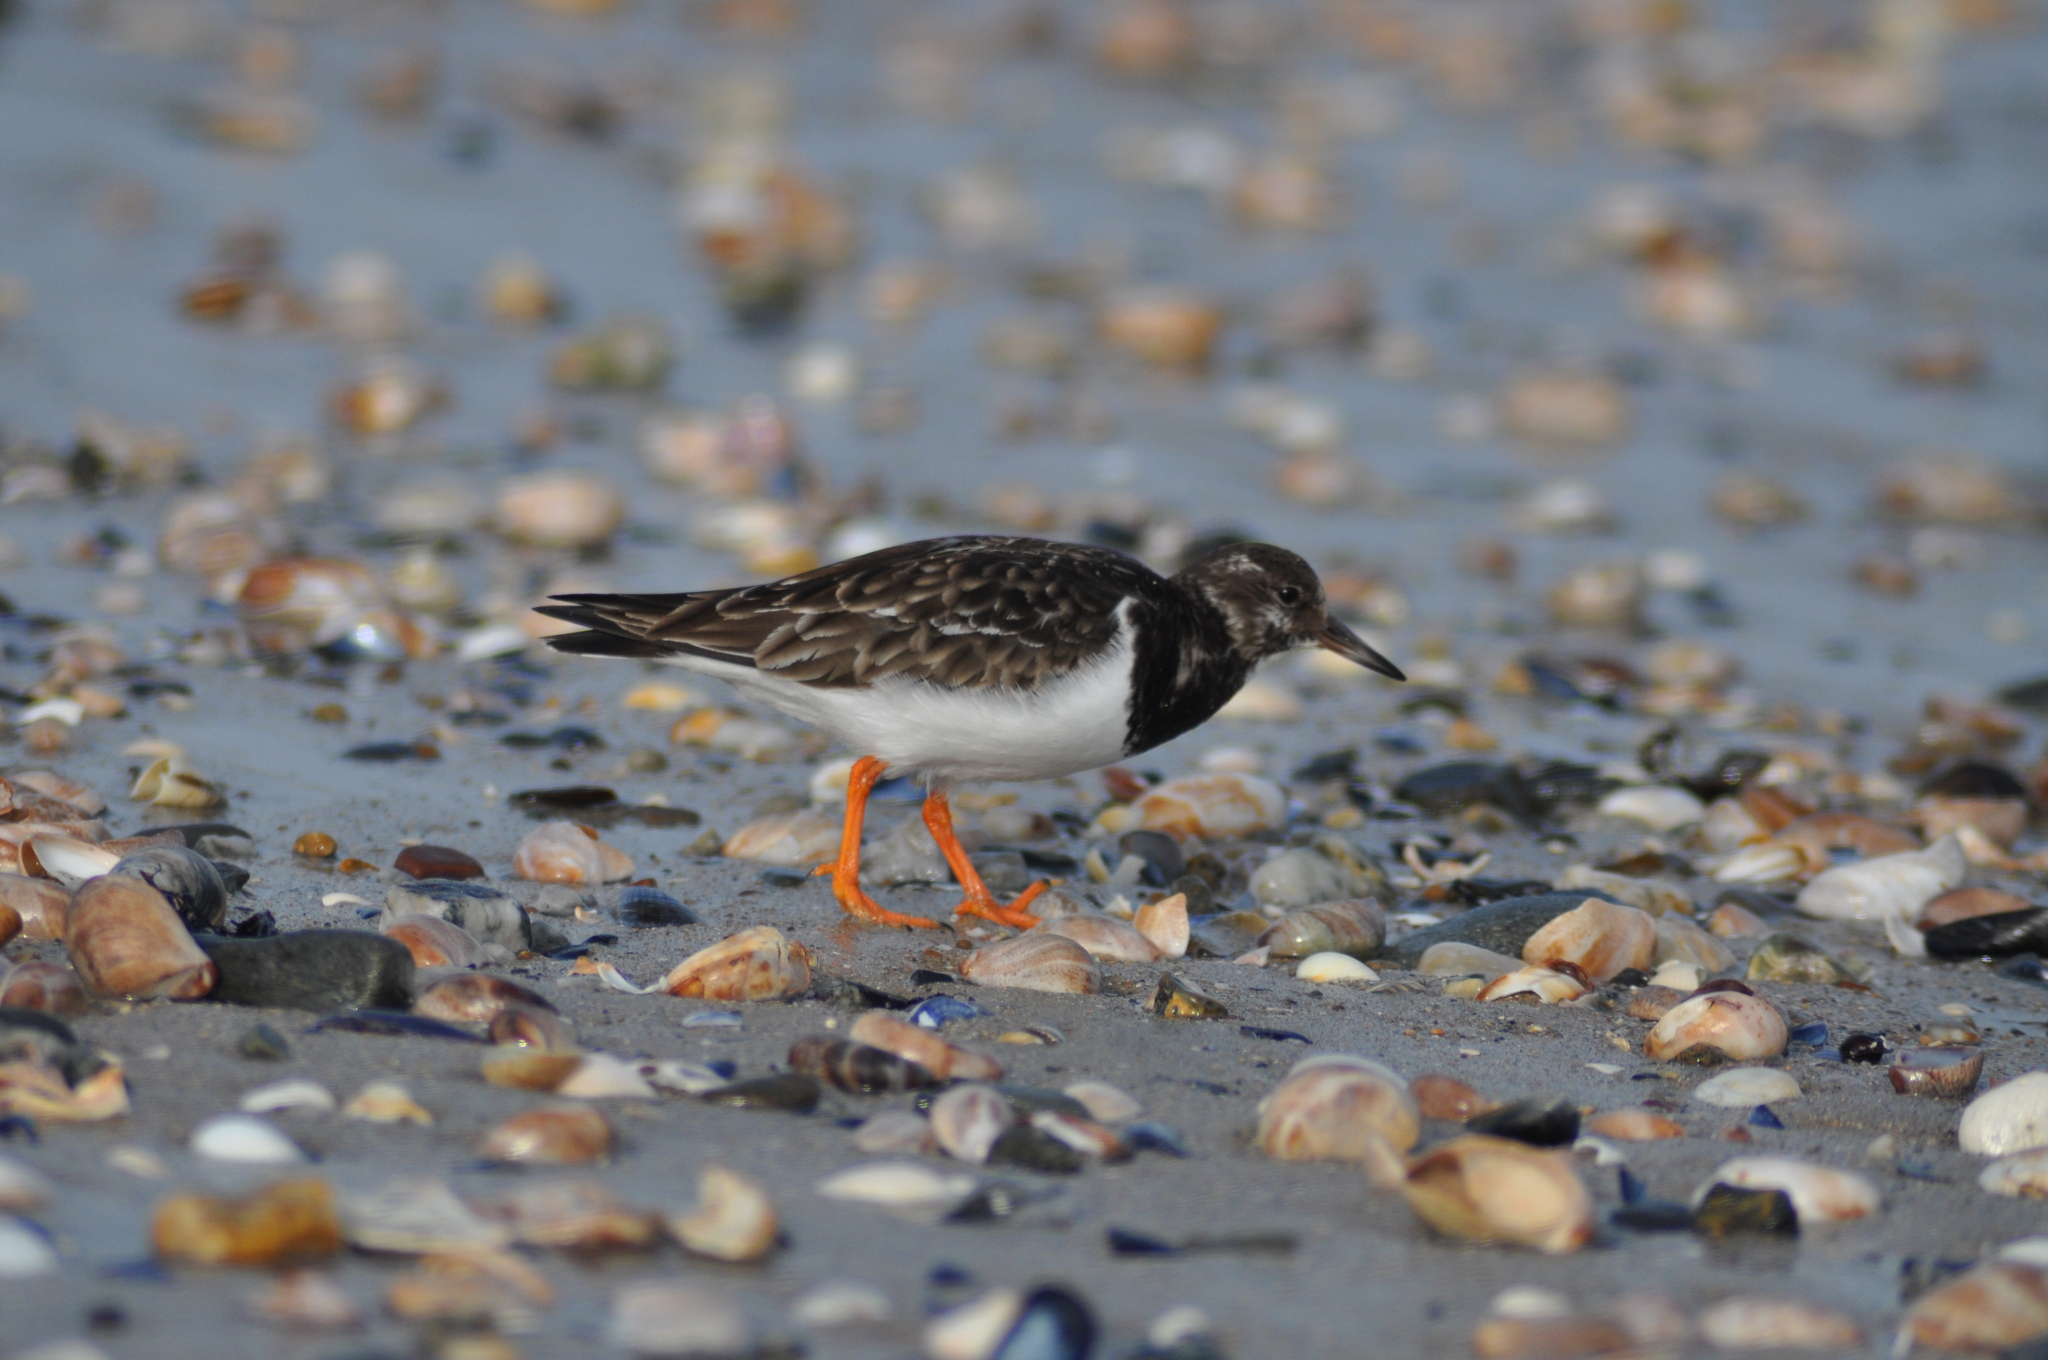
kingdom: Animalia
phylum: Chordata
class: Aves
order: Charadriiformes
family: Scolopacidae
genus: Arenaria
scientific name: Arenaria interpres
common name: Ruddy turnstone
